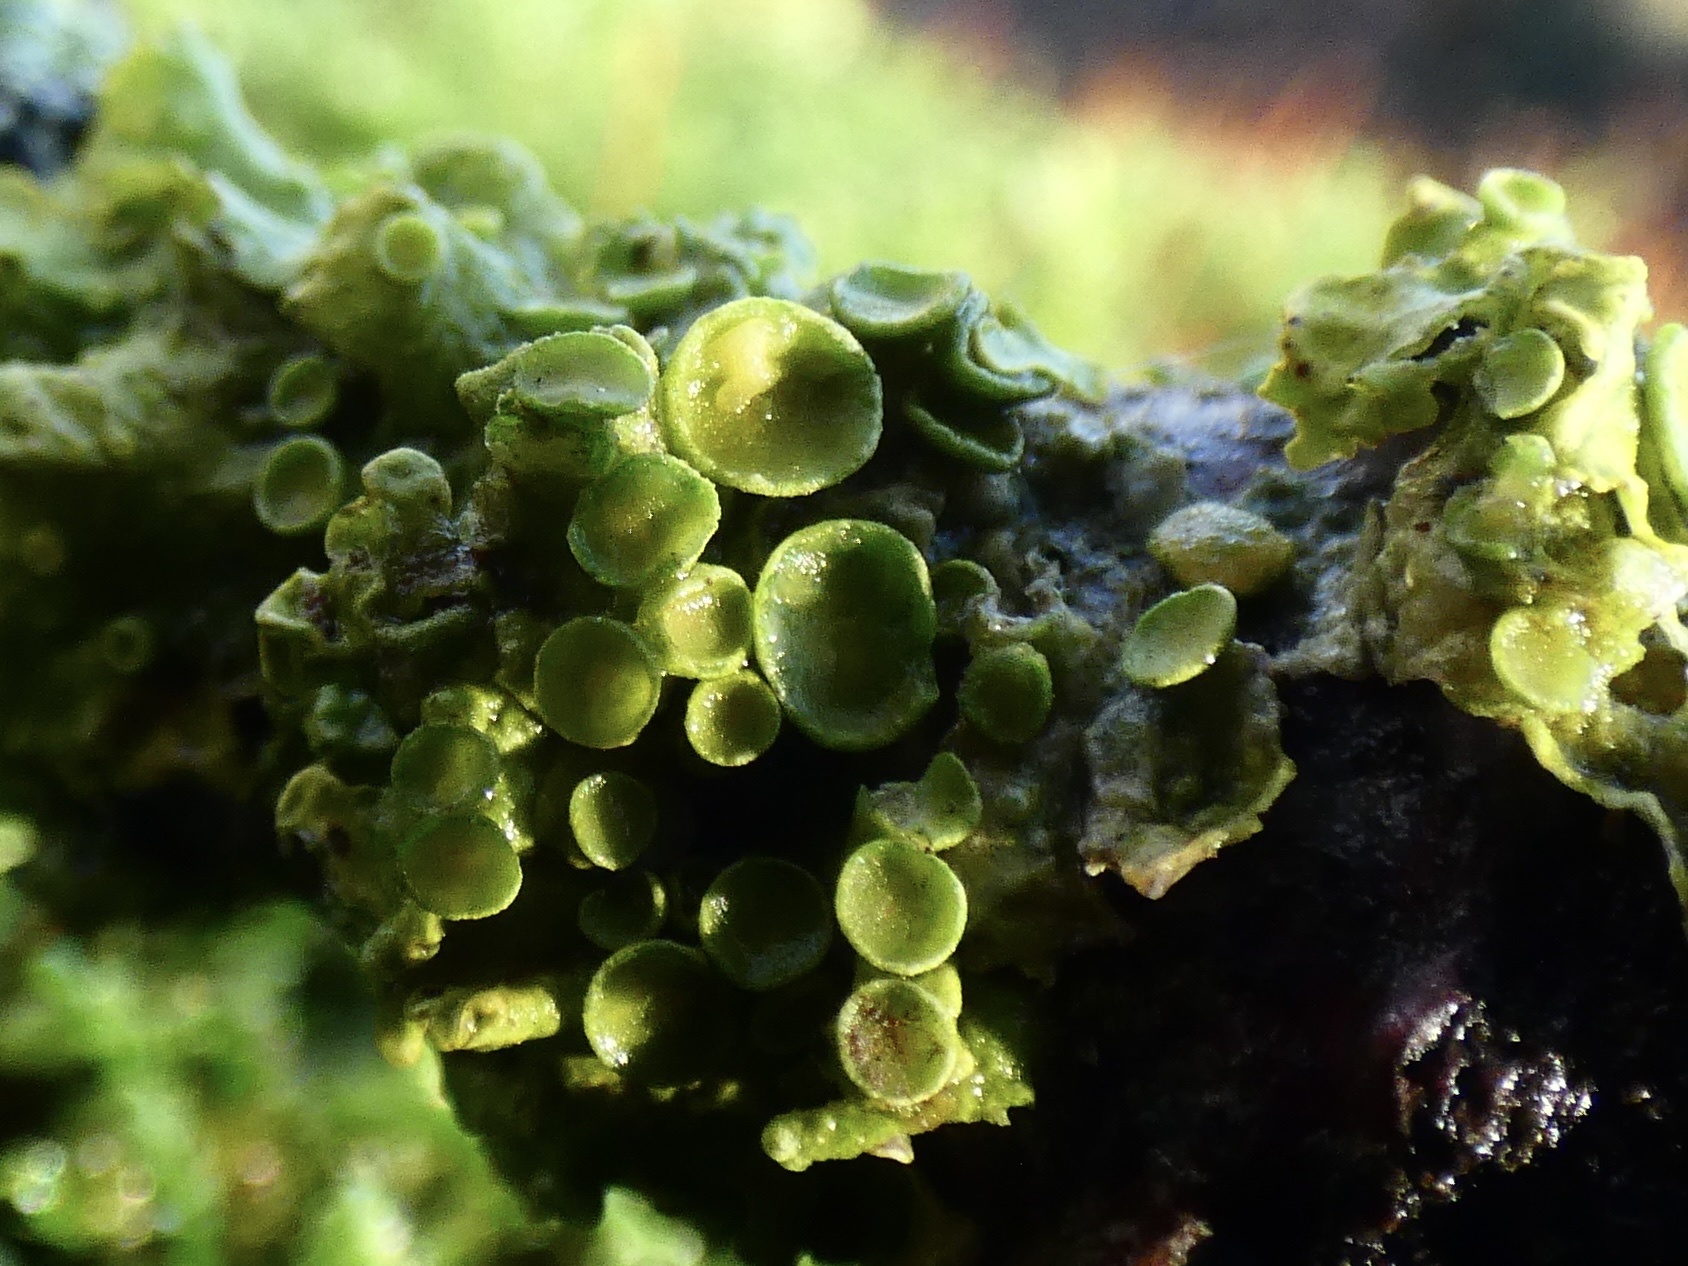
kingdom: Fungi
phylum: Ascomycota
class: Lecanoromycetes
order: Teloschistales
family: Teloschistaceae
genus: Xanthoria
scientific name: Xanthoria parietina
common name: Common orange lichen
